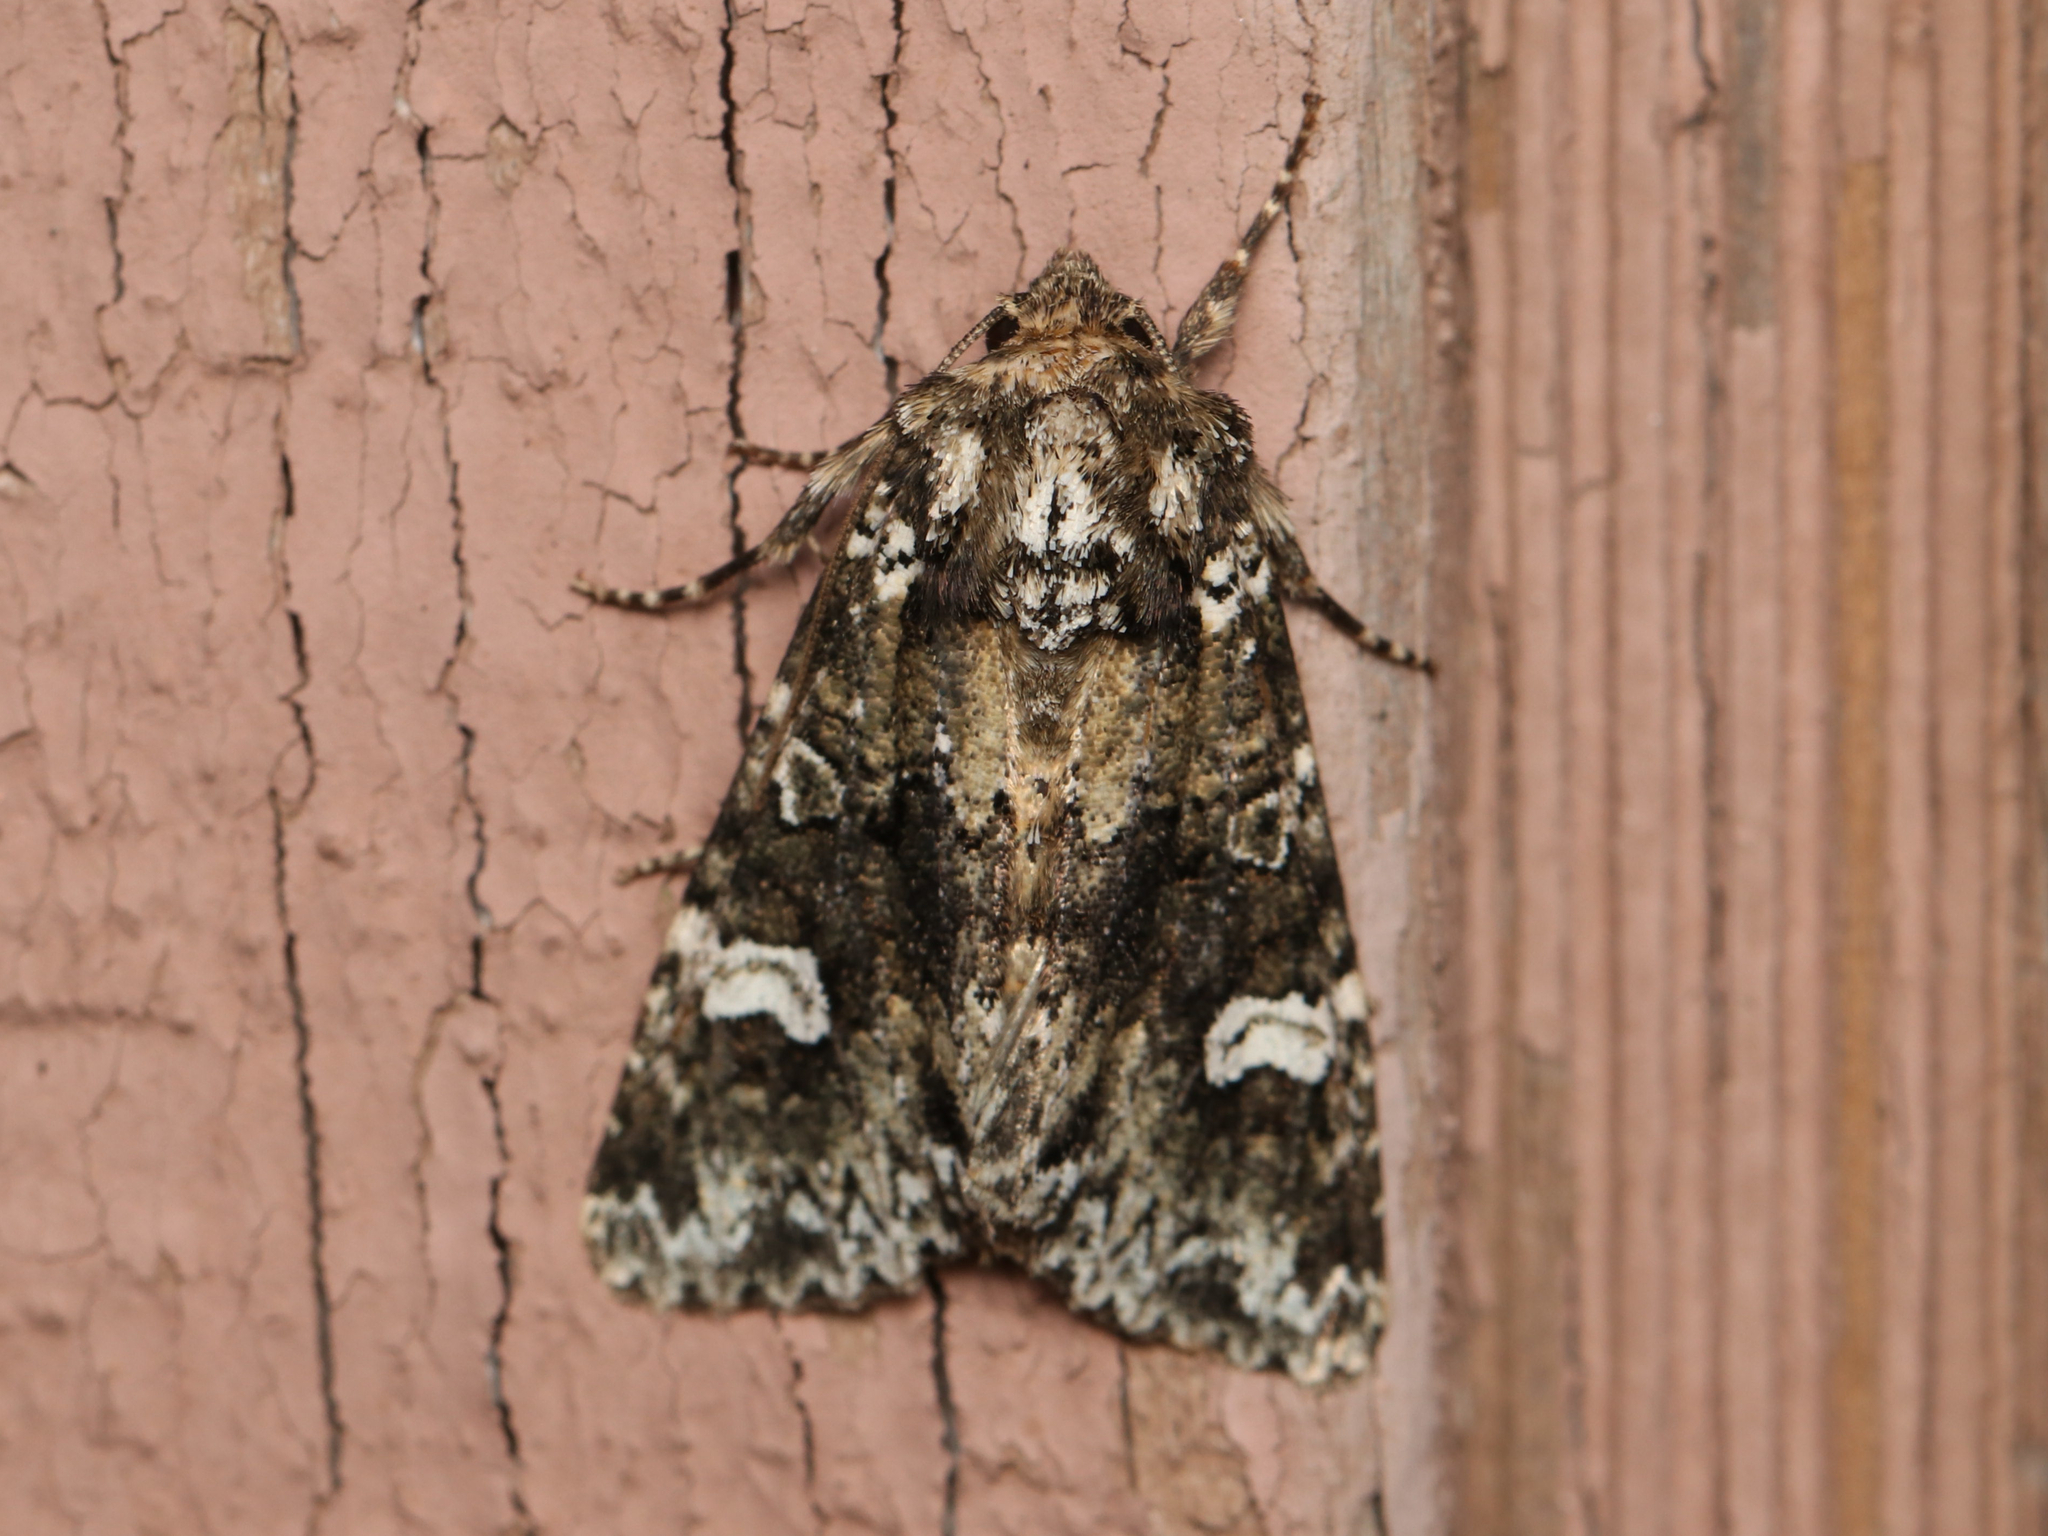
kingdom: Animalia
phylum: Arthropoda
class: Insecta
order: Lepidoptera
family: Noctuidae
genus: Melanchra
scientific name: Melanchra adjuncta
